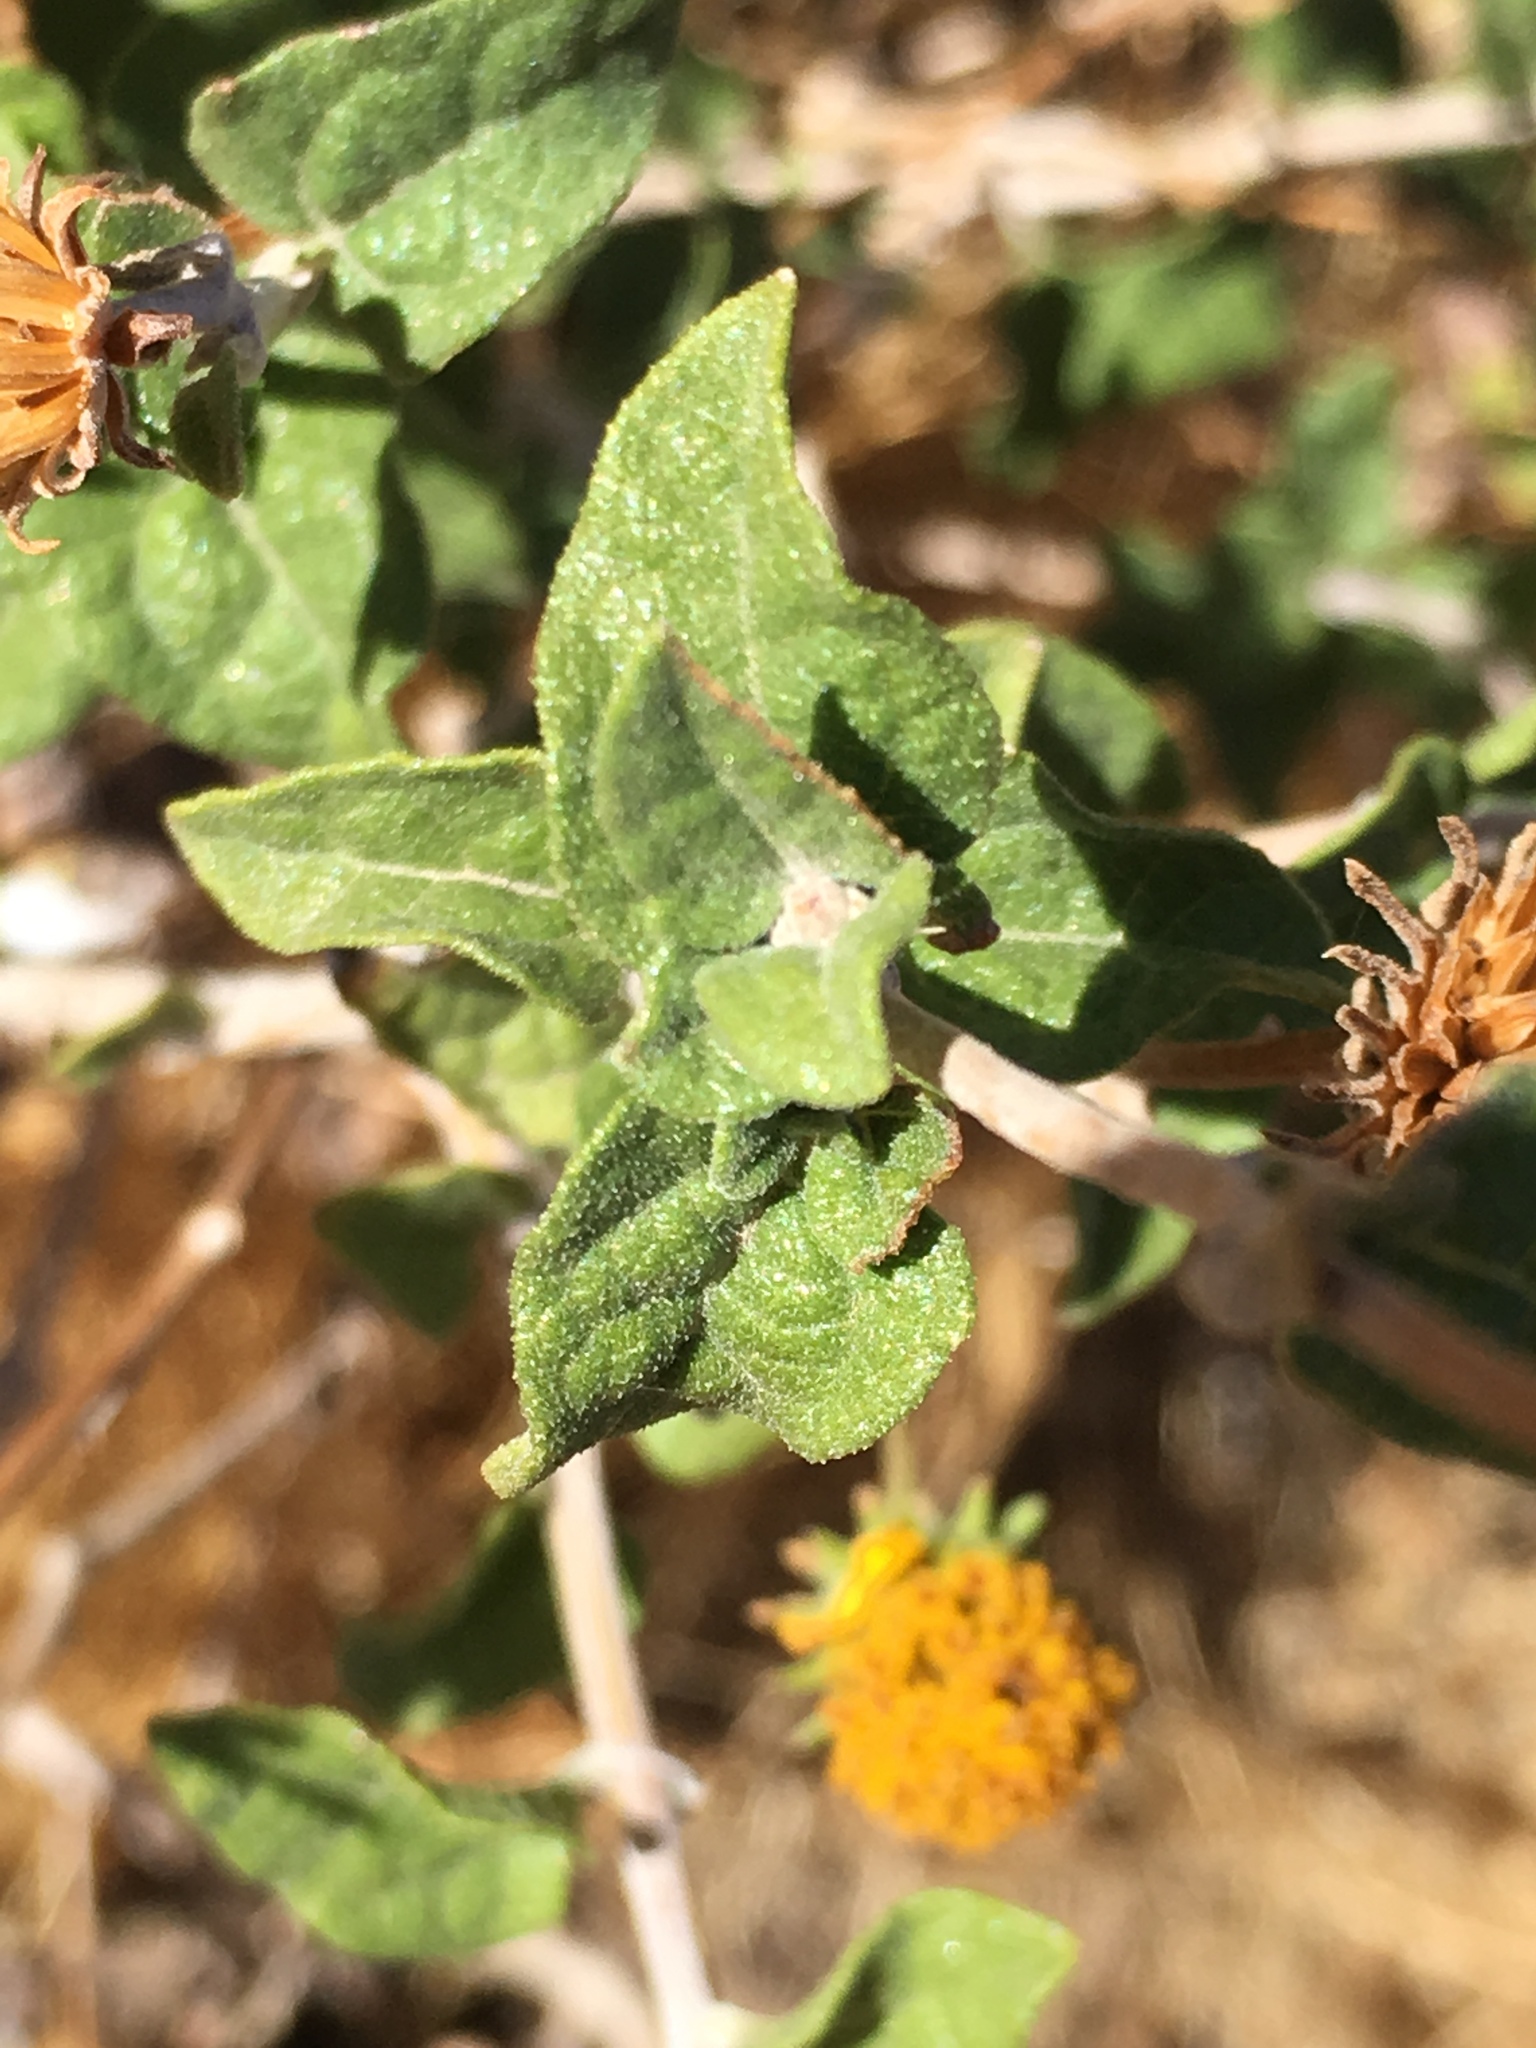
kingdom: Plantae
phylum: Tracheophyta
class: Magnoliopsida
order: Asterales
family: Asteraceae
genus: Bahiopsis
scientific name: Bahiopsis parishii
